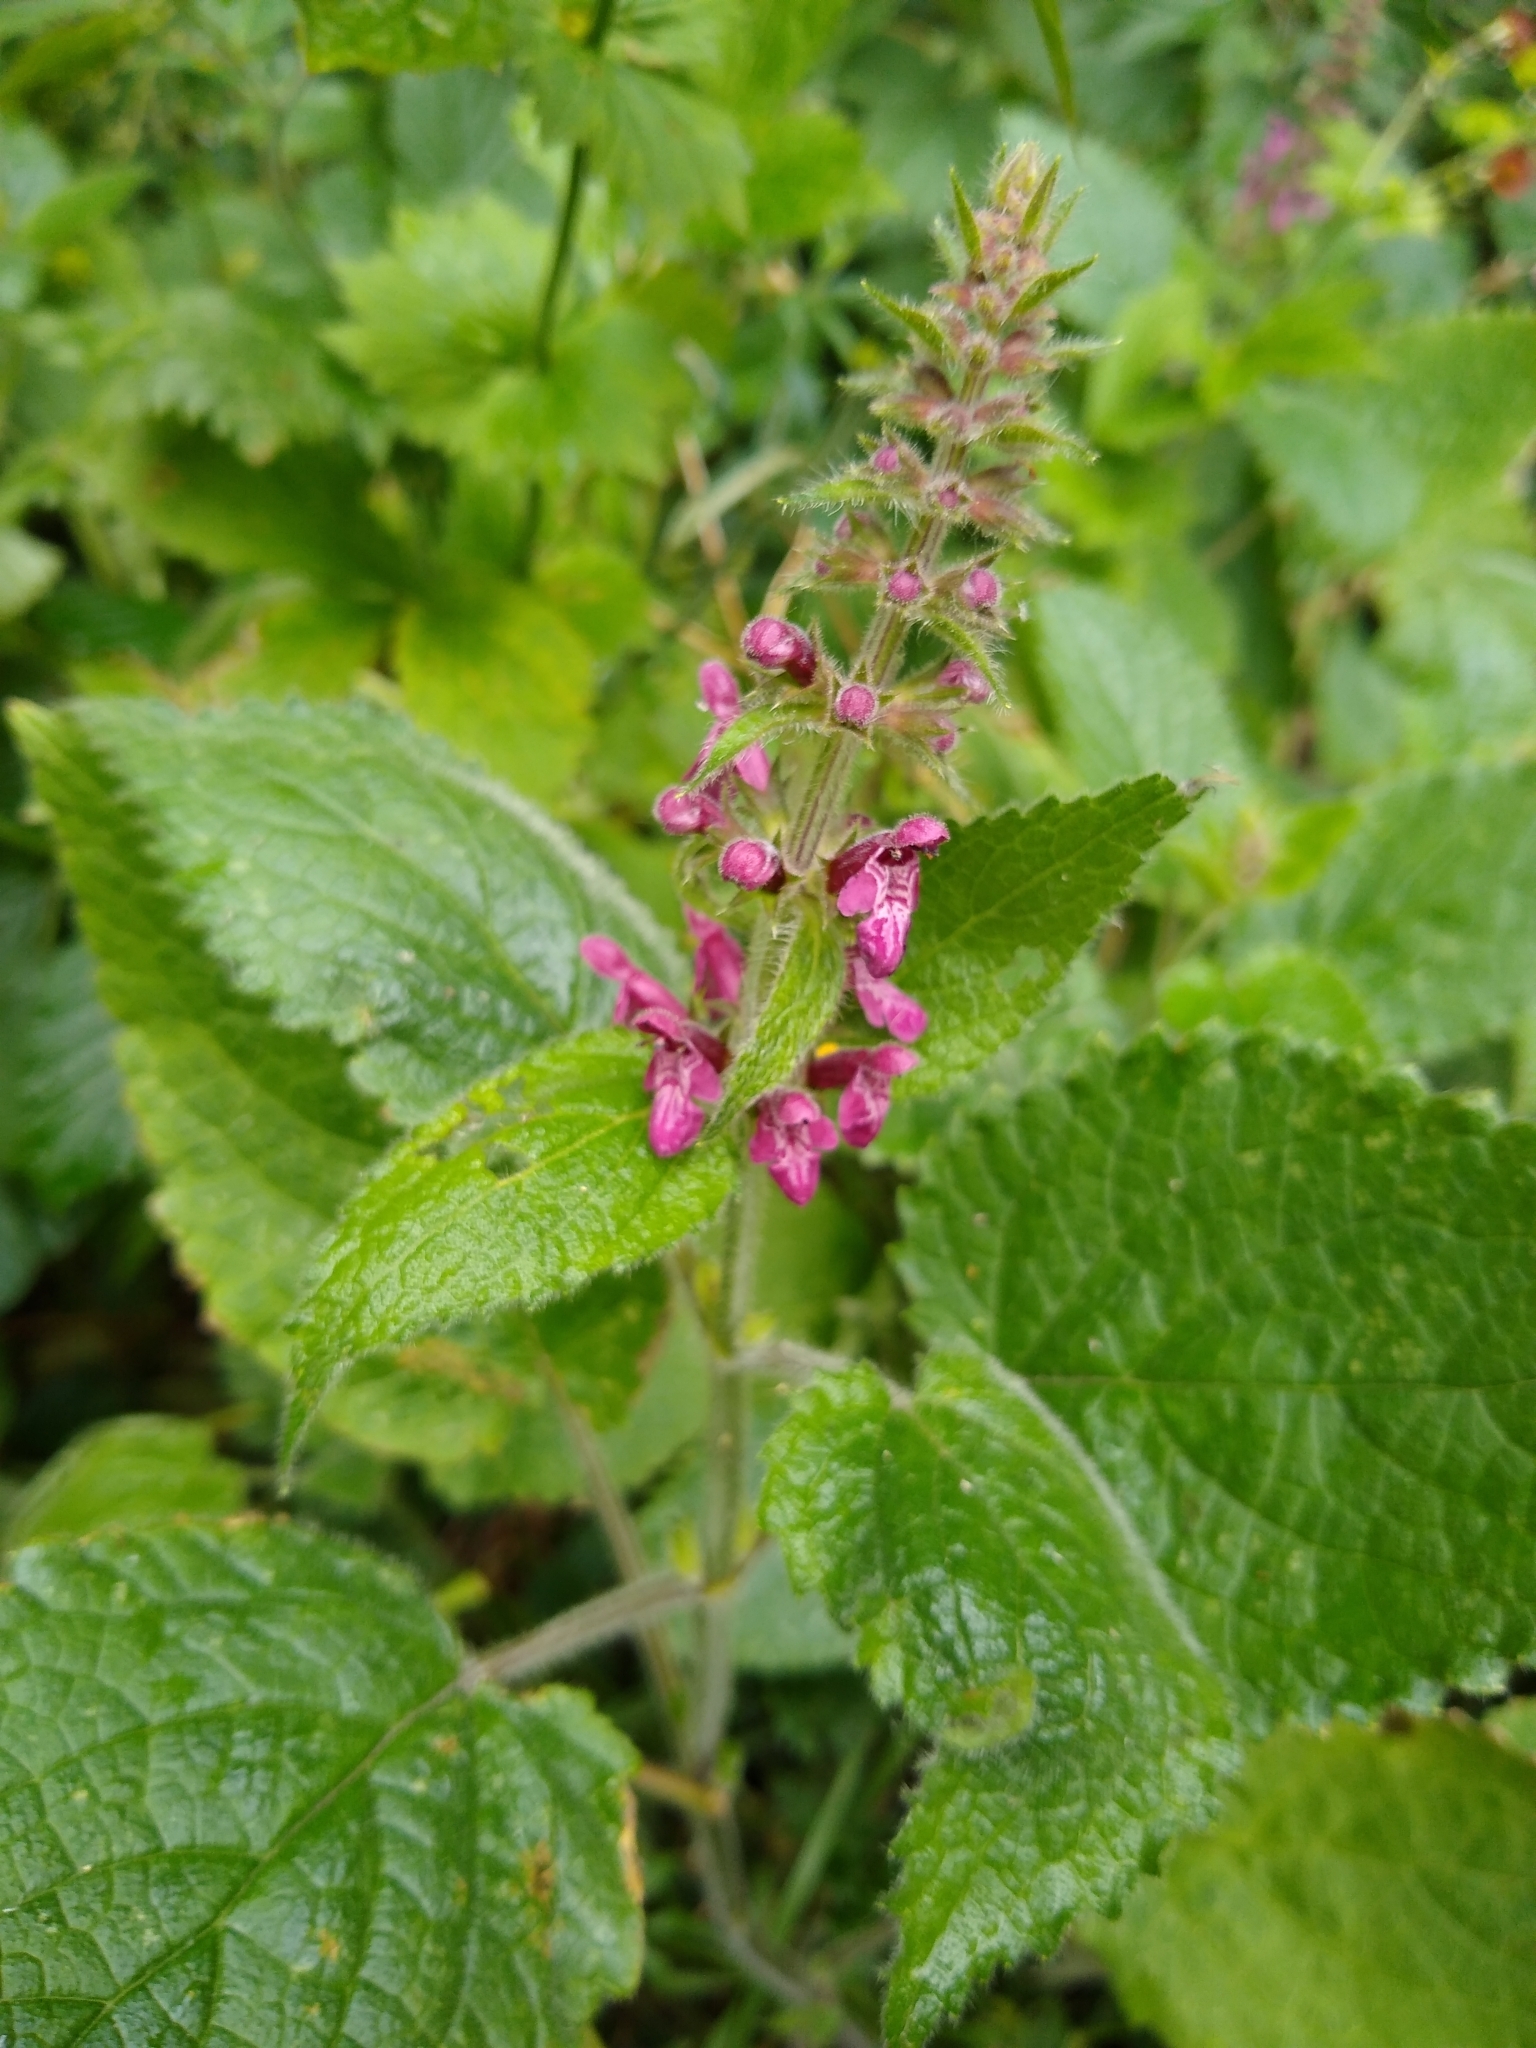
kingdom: Plantae
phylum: Tracheophyta
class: Magnoliopsida
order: Lamiales
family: Lamiaceae
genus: Stachys
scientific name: Stachys sylvatica
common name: Hedge woundwort
